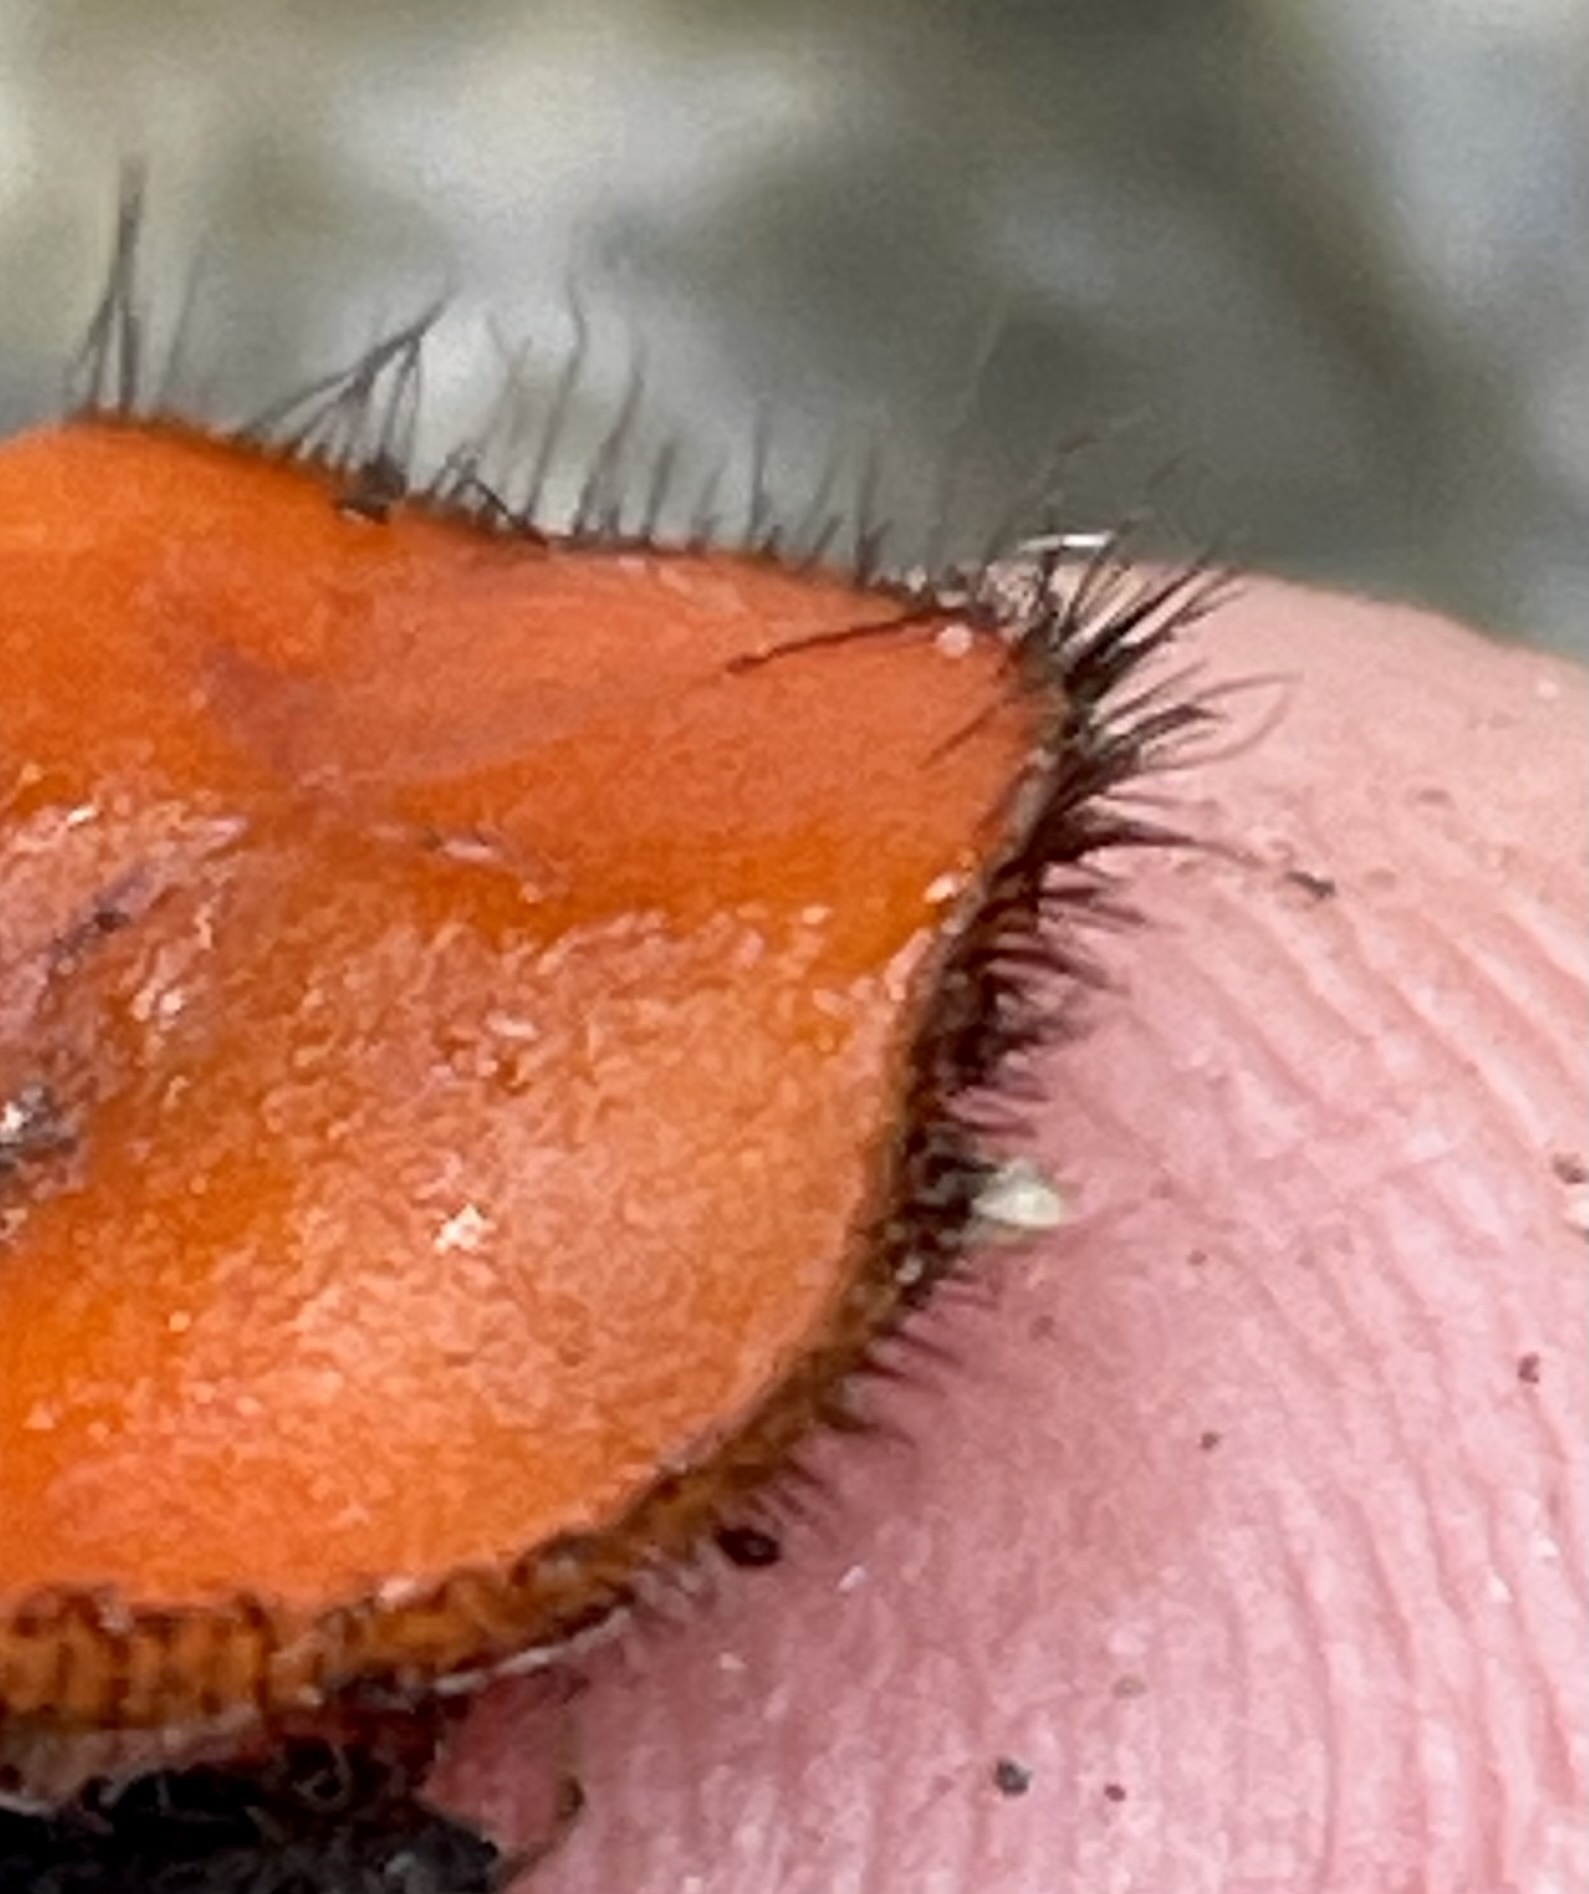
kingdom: Fungi
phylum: Ascomycota
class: Pezizomycetes
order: Pezizales
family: Pyronemataceae
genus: Scutellinia
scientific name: Scutellinia scutellata
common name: Common eyelash
